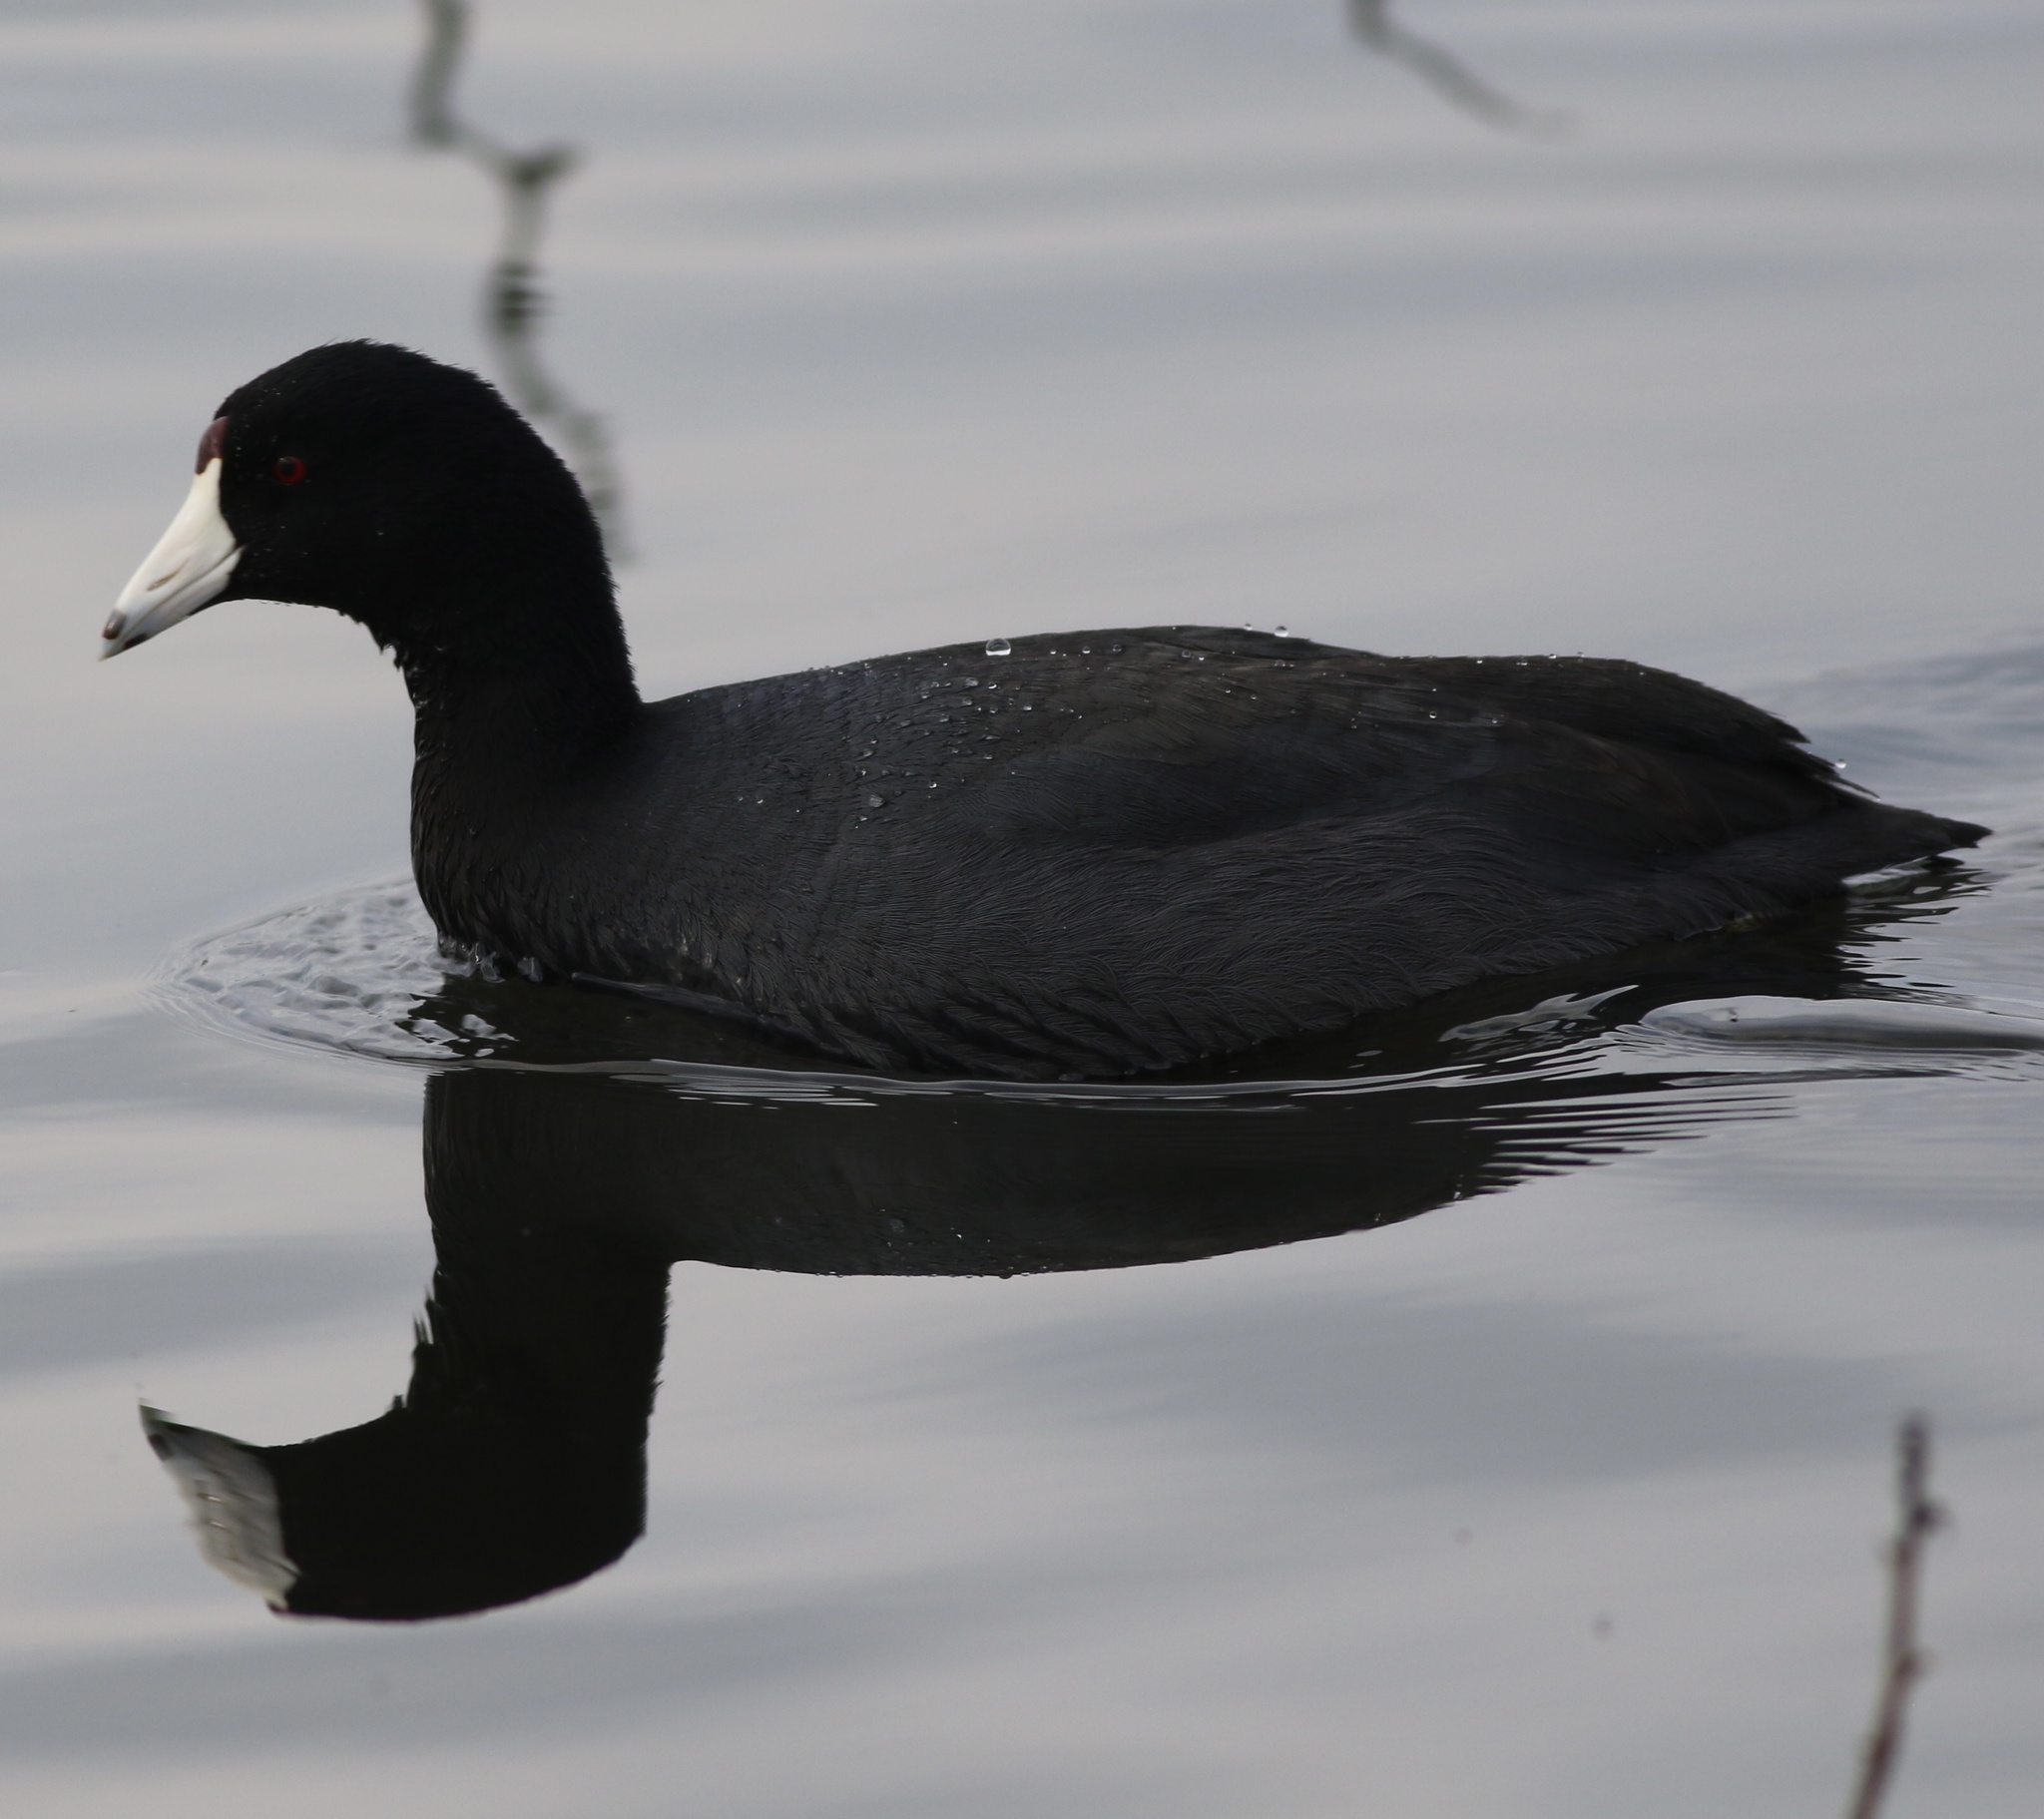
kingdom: Animalia
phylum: Chordata
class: Aves
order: Gruiformes
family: Rallidae
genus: Fulica
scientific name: Fulica americana
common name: American coot
